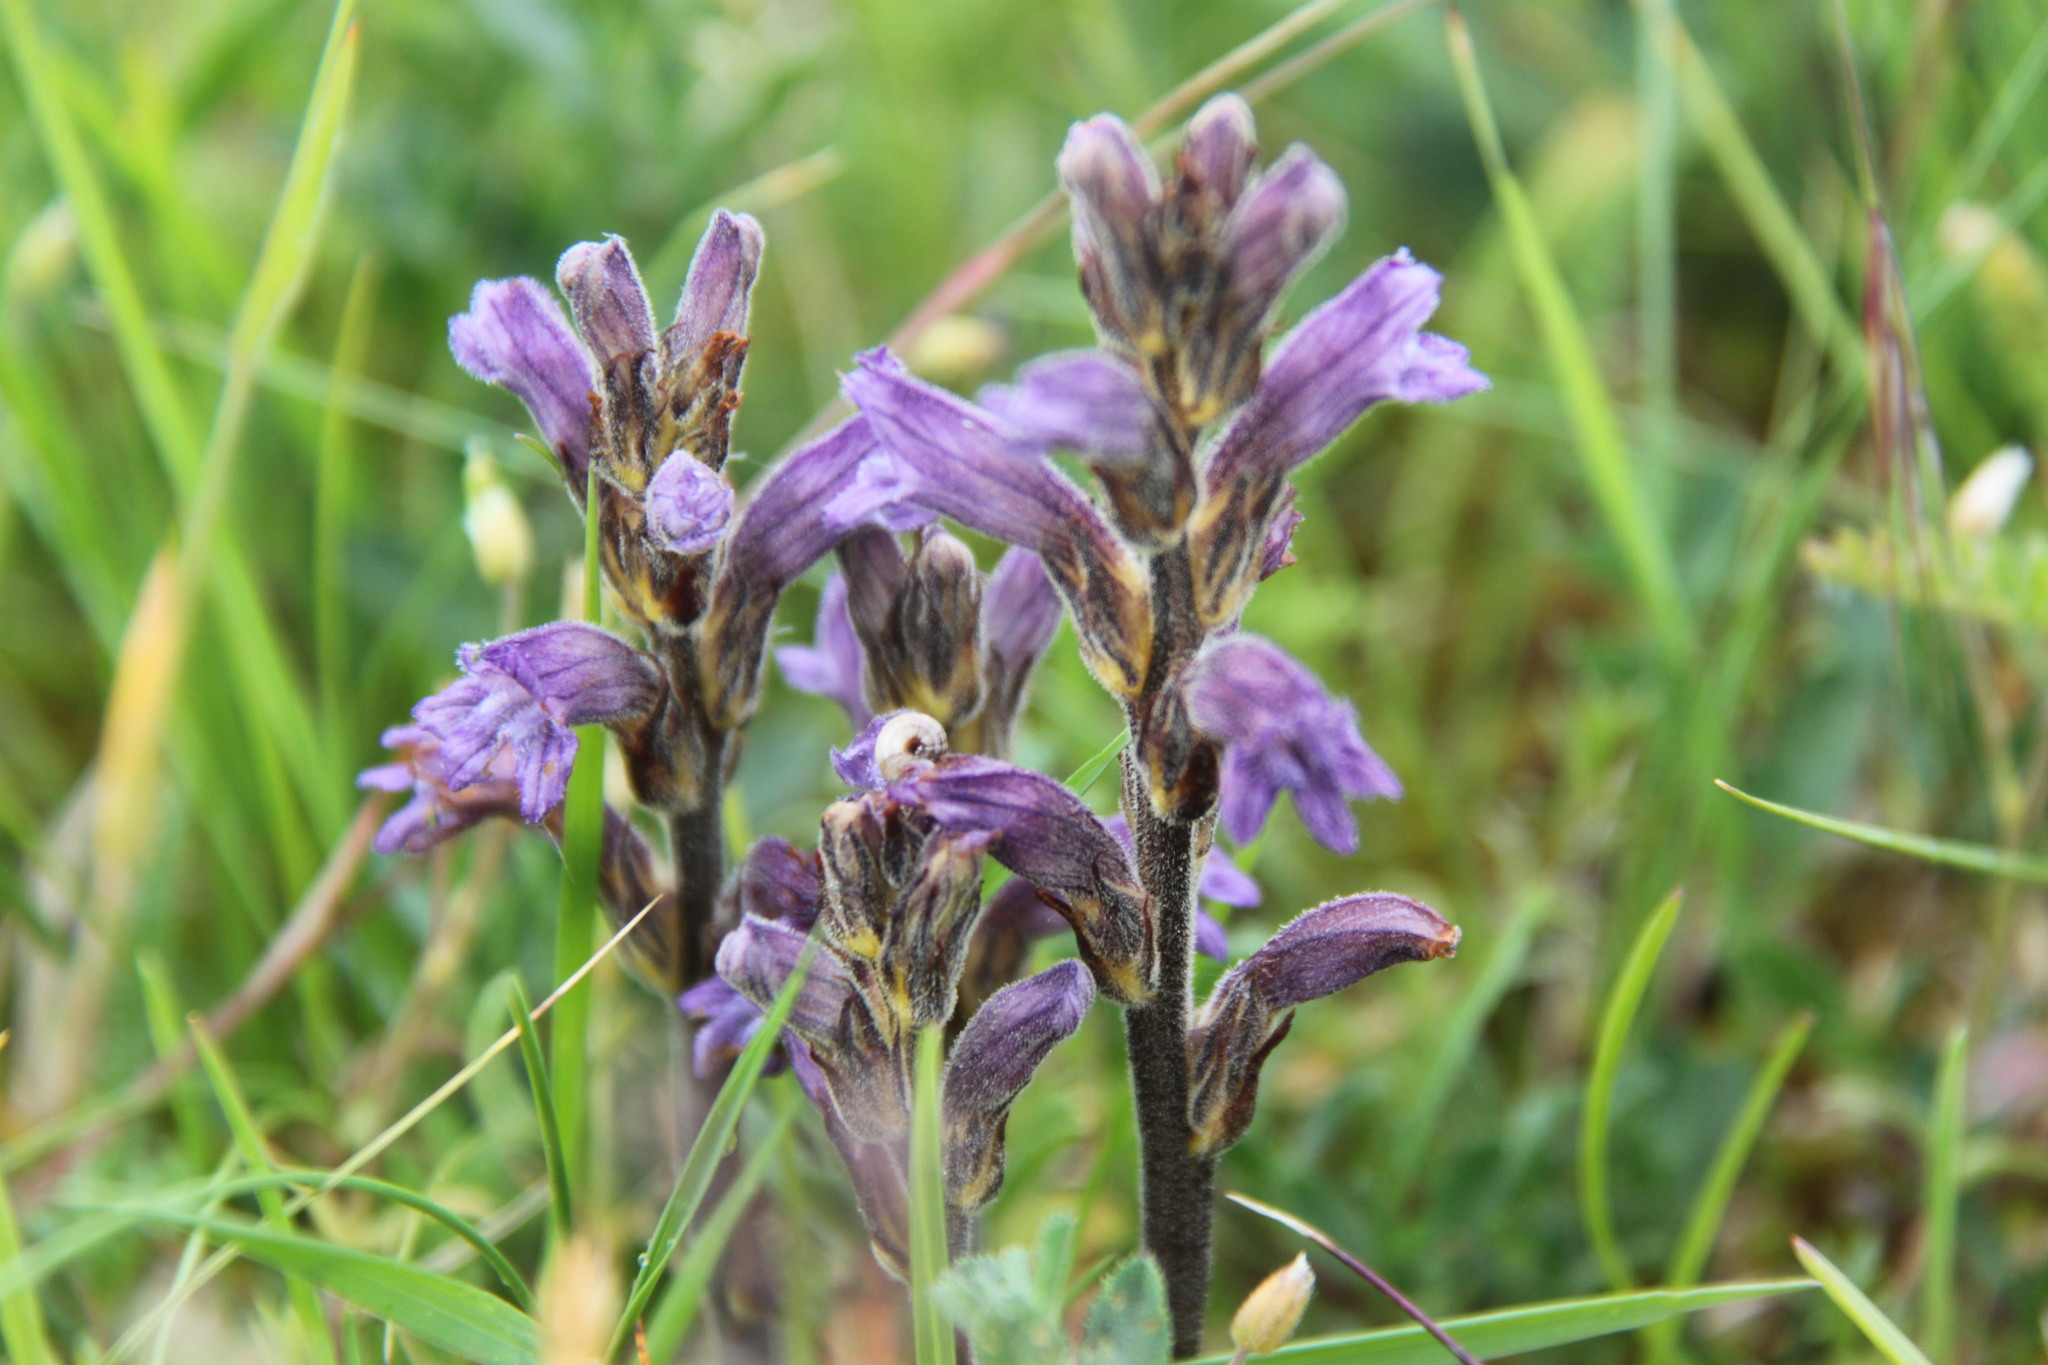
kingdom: Plantae
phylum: Tracheophyta
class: Magnoliopsida
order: Lamiales
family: Orobanchaceae
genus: Phelipanche
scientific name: Phelipanche purpurea
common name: Purple broomrape
